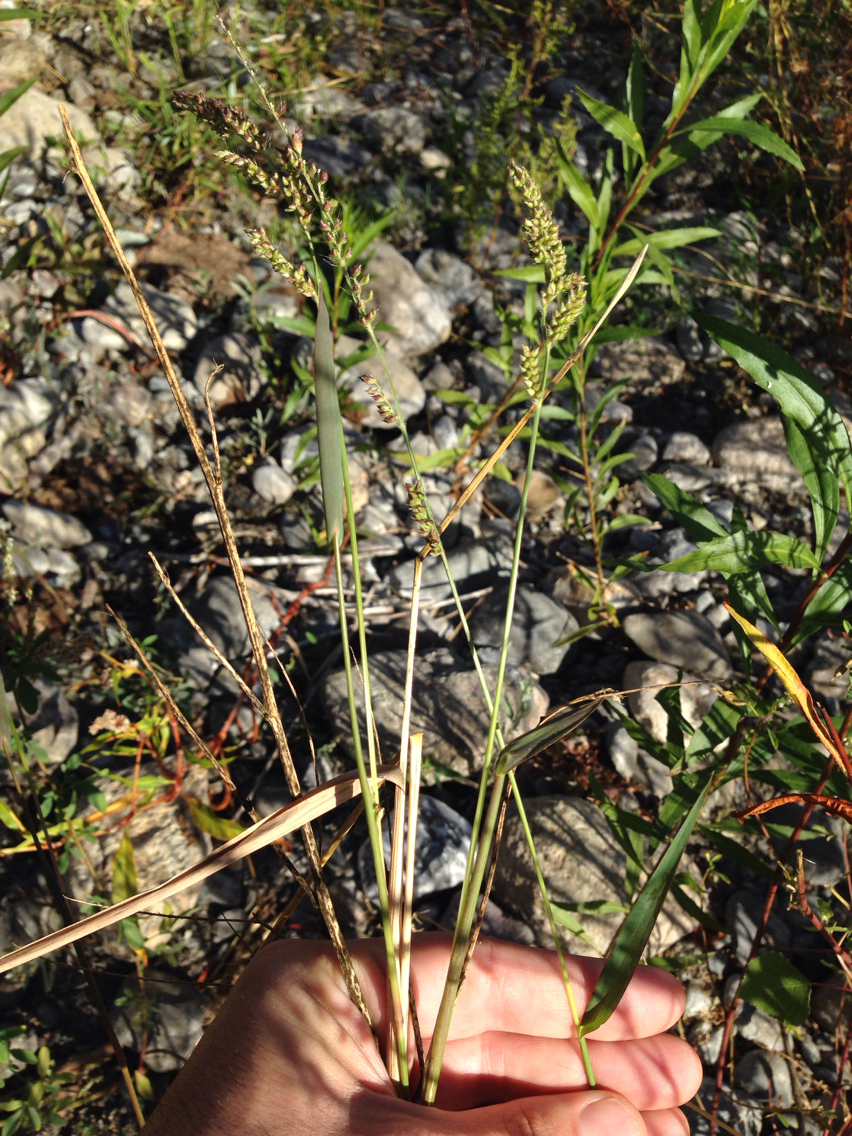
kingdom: Plantae
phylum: Tracheophyta
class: Liliopsida
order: Poales
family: Poaceae
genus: Echinochloa
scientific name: Echinochloa
